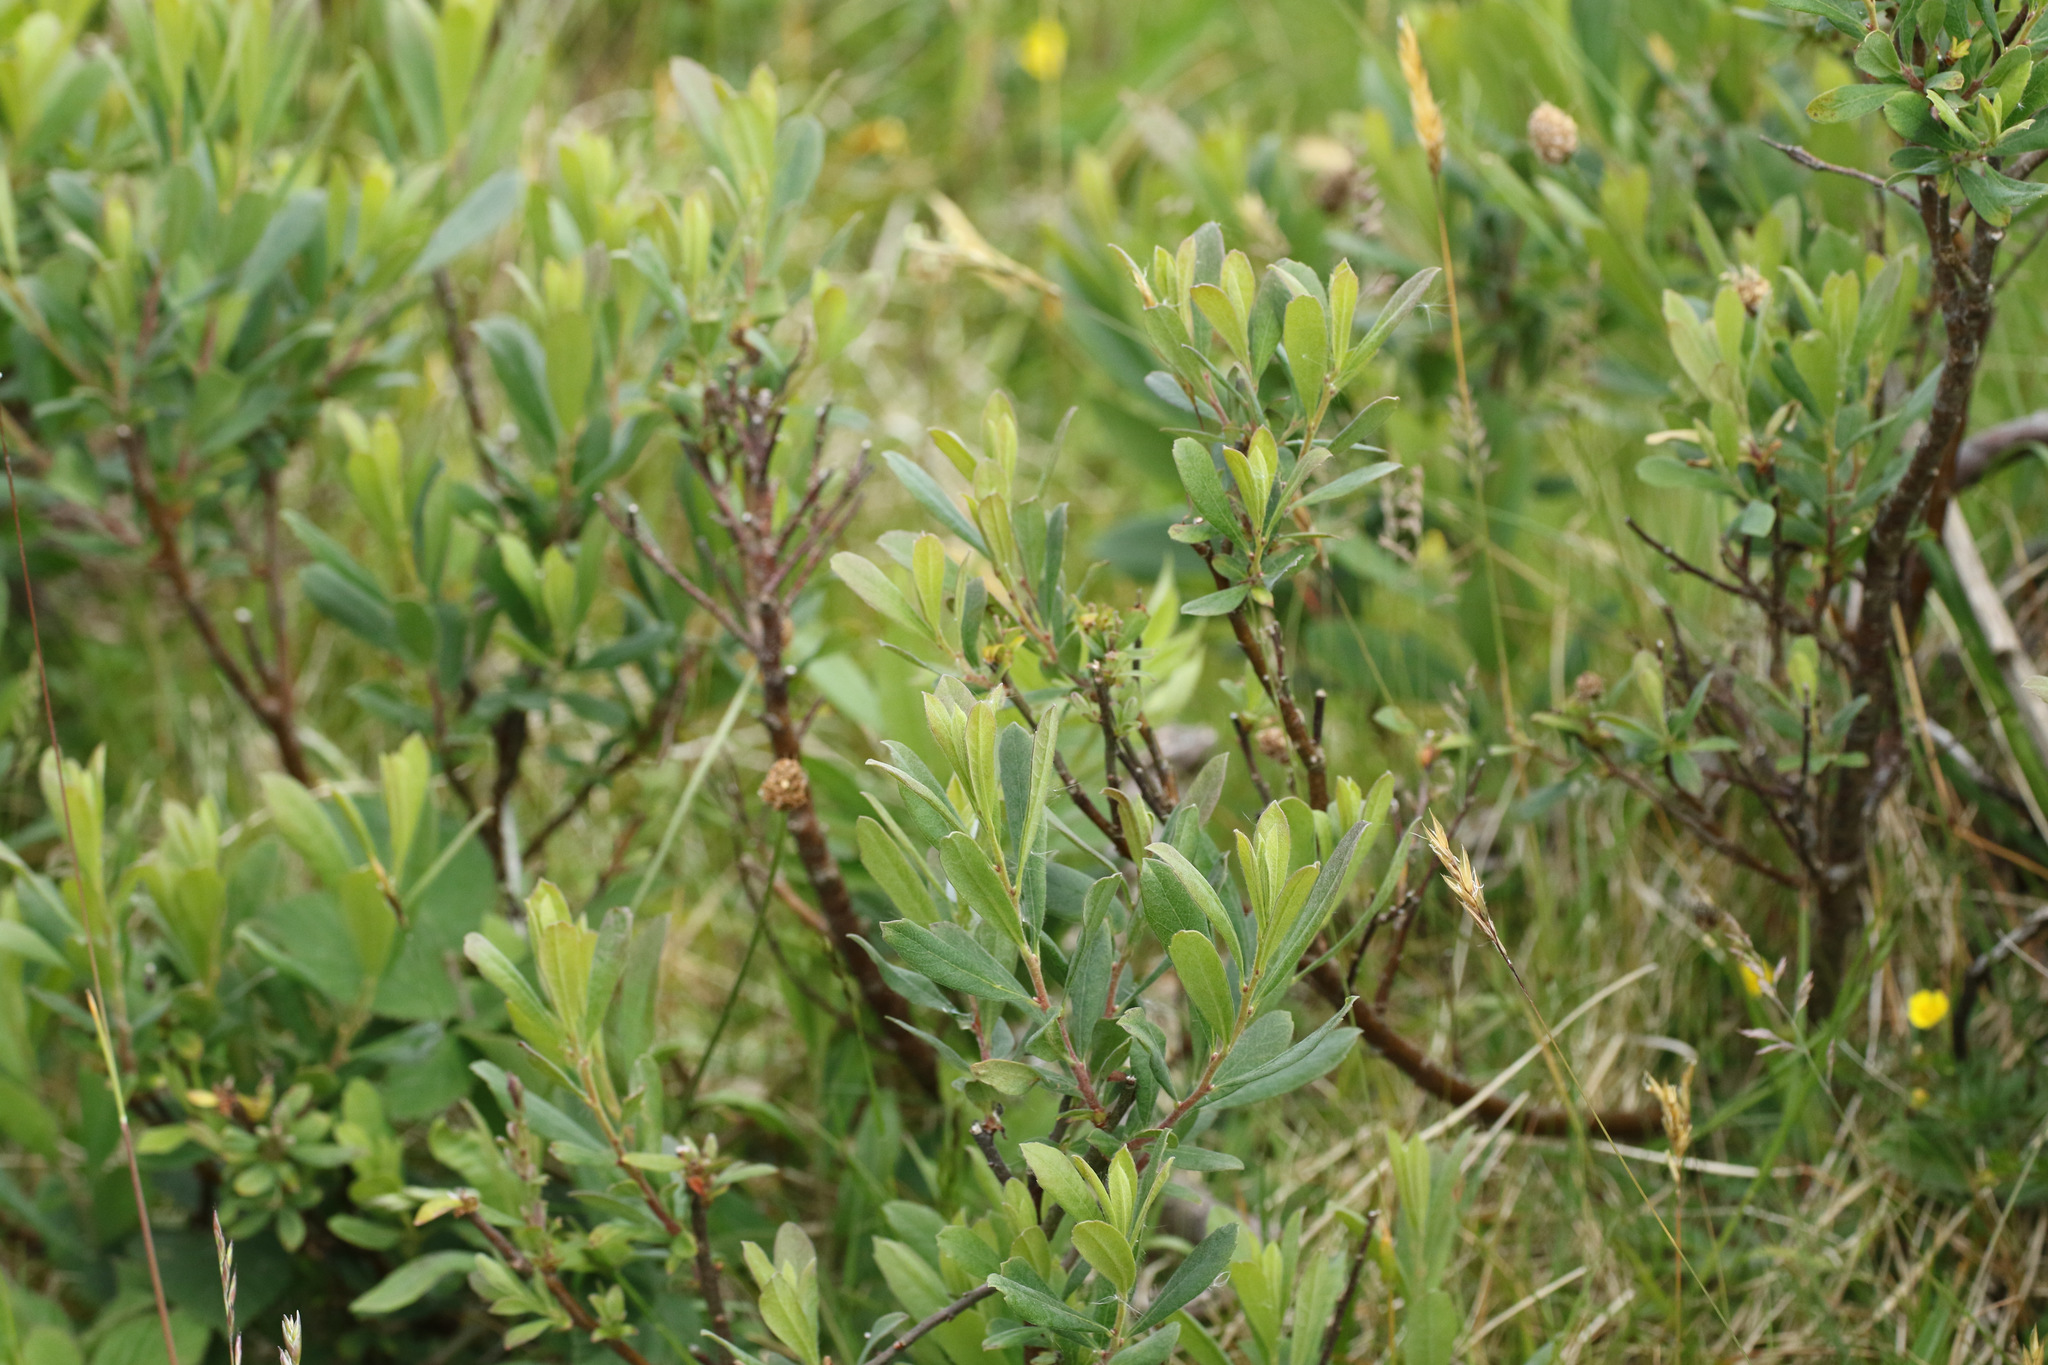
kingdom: Plantae
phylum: Tracheophyta
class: Magnoliopsida
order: Fagales
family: Myricaceae
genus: Myrica
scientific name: Myrica gale
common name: Sweet gale
